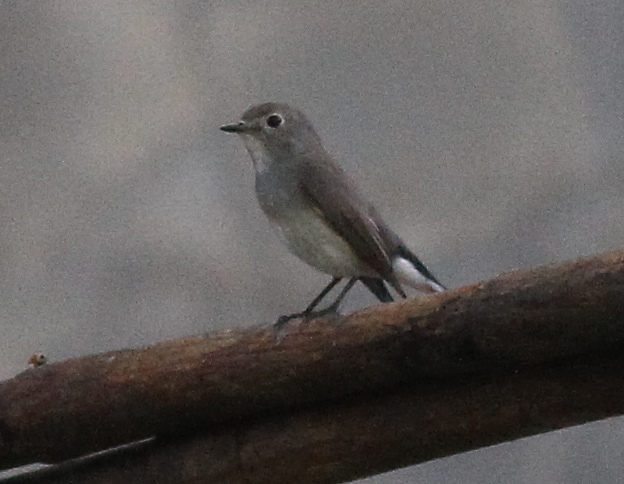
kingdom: Animalia
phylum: Chordata
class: Aves
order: Passeriformes
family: Muscicapidae
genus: Ficedula
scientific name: Ficedula albicilla
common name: Taiga flycatcher
